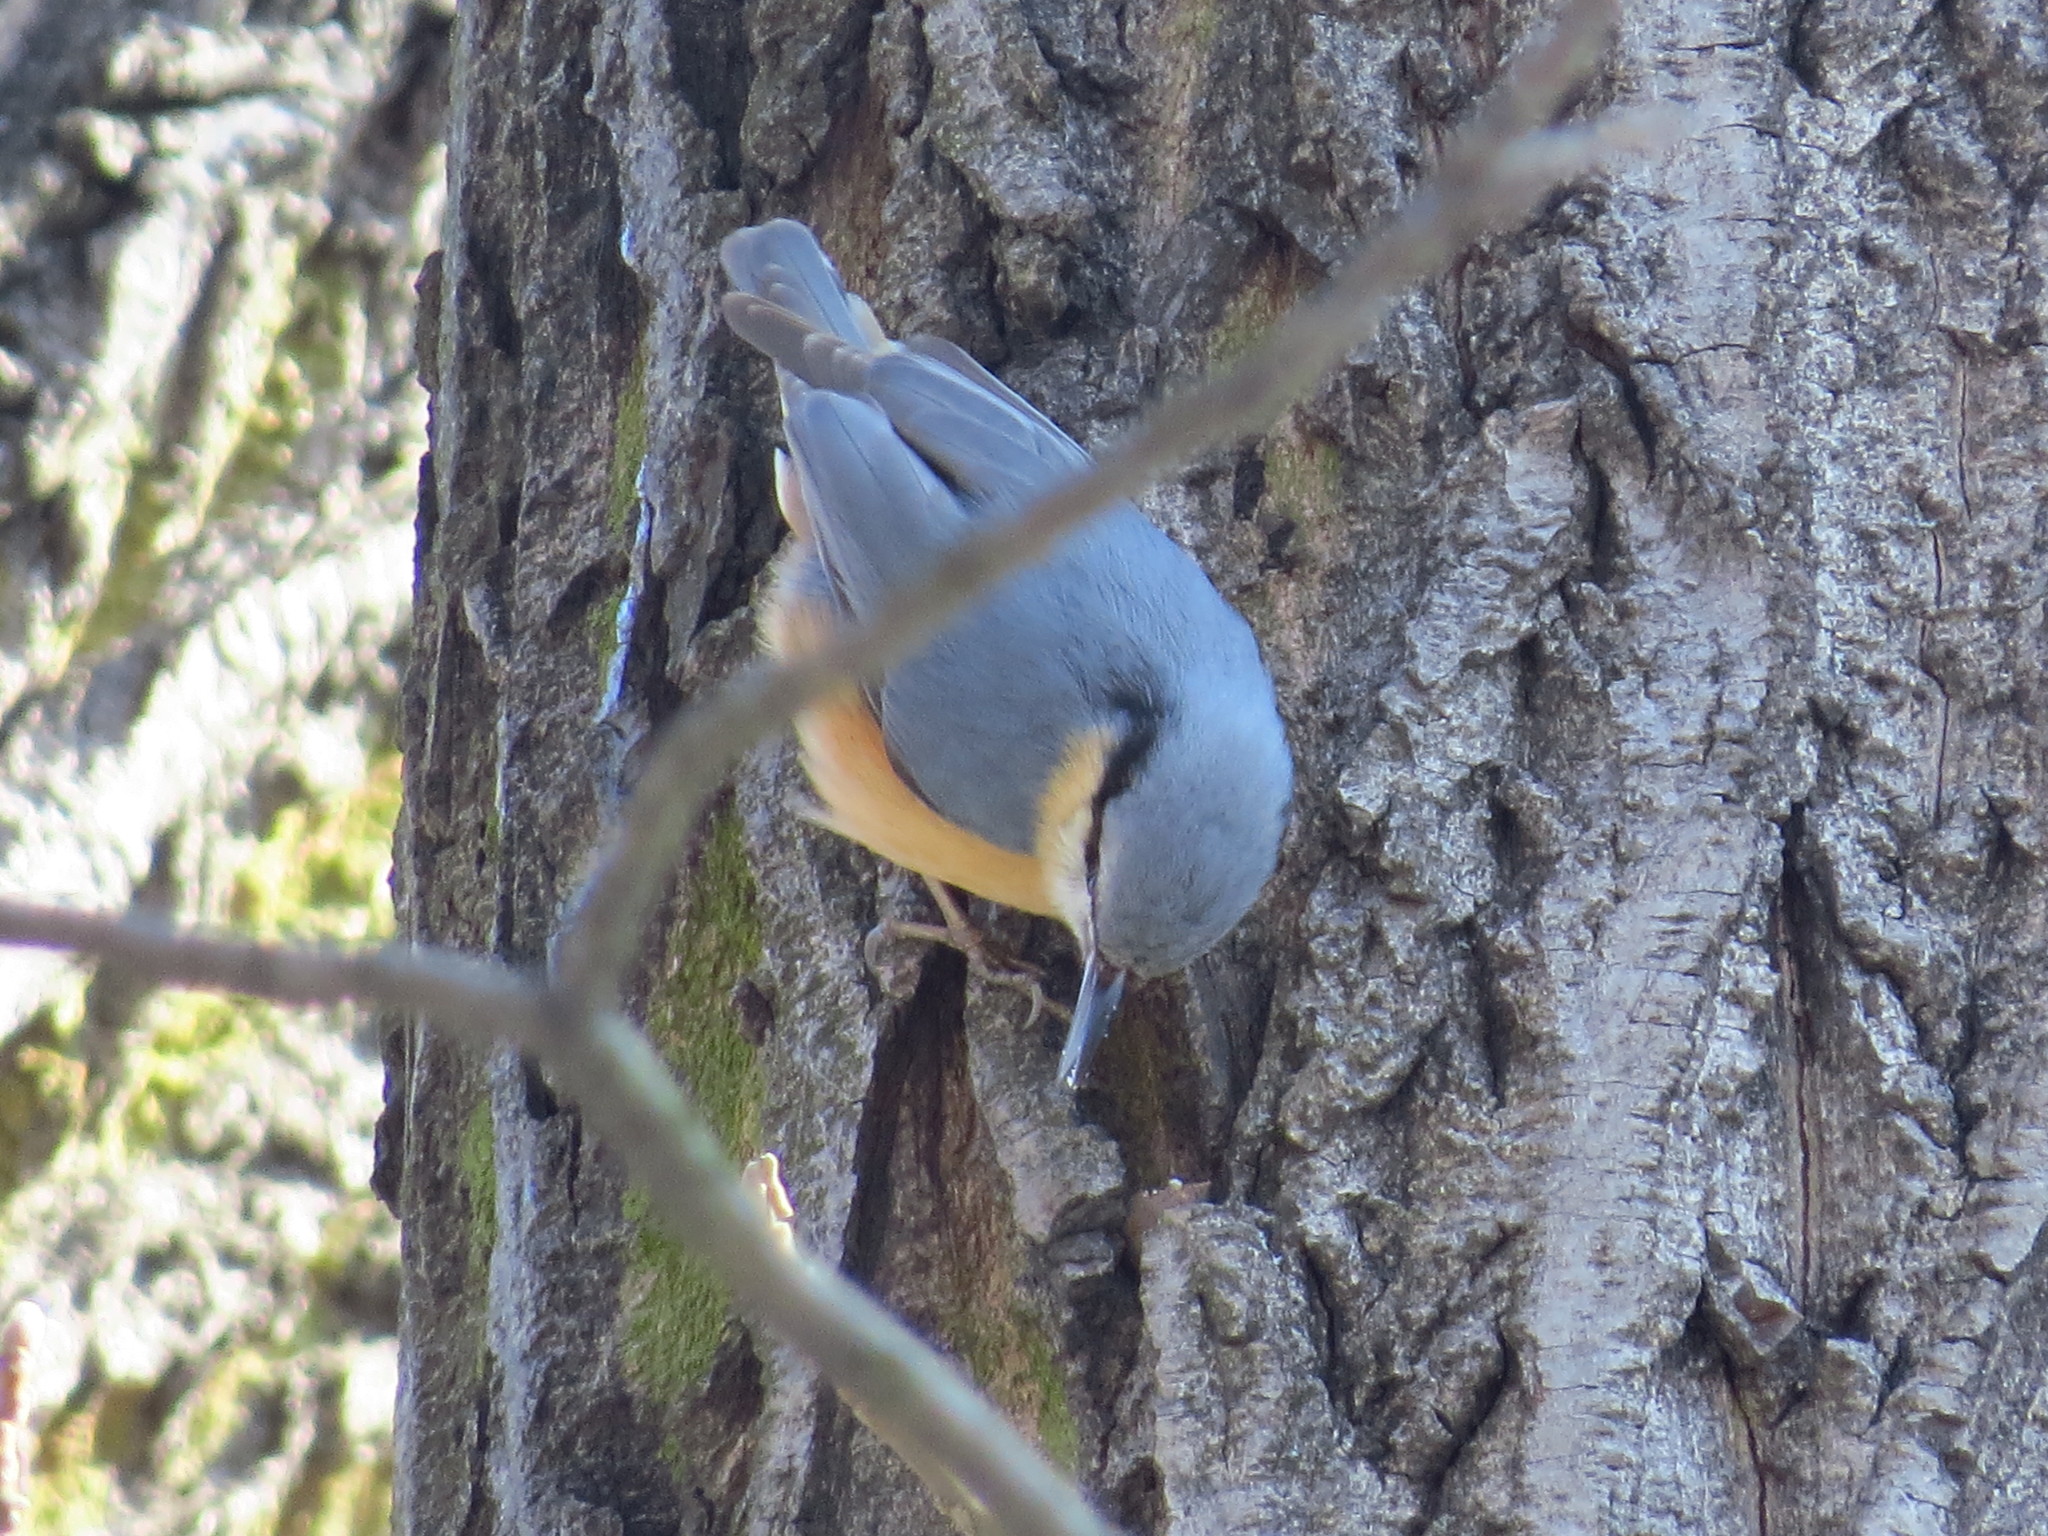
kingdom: Animalia
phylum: Chordata
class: Aves
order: Passeriformes
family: Sittidae
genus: Sitta
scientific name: Sitta europaea
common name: Eurasian nuthatch
